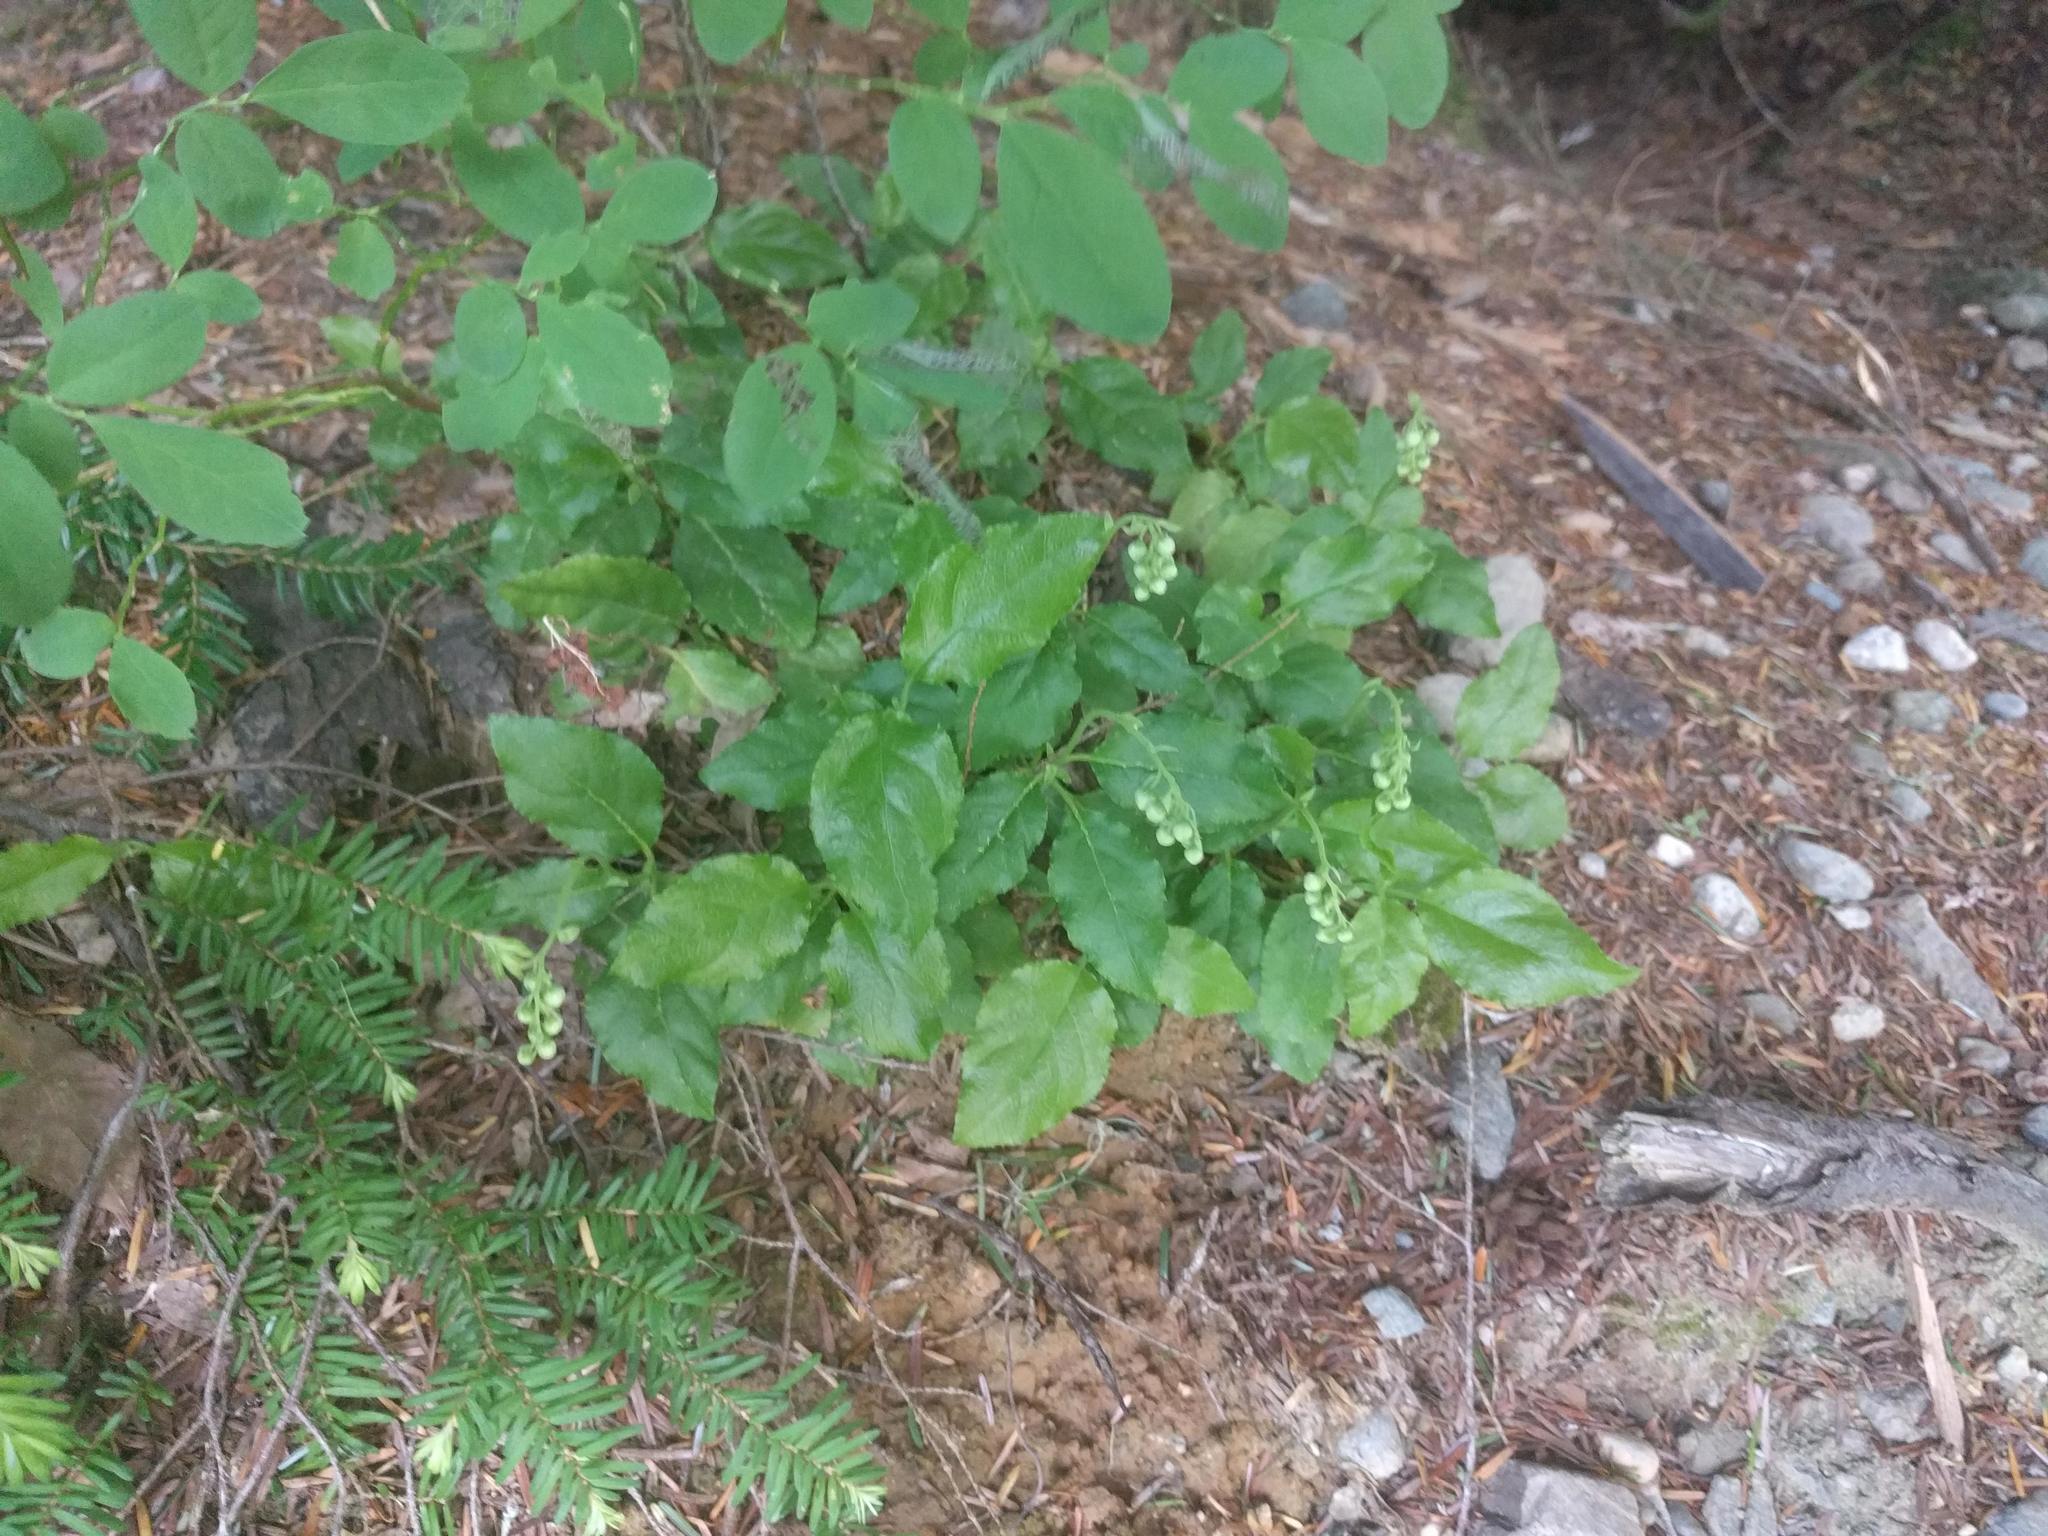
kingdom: Plantae
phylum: Tracheophyta
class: Magnoliopsida
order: Ericales
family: Ericaceae
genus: Orthilia
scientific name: Orthilia secunda
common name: One-sided orthilia
